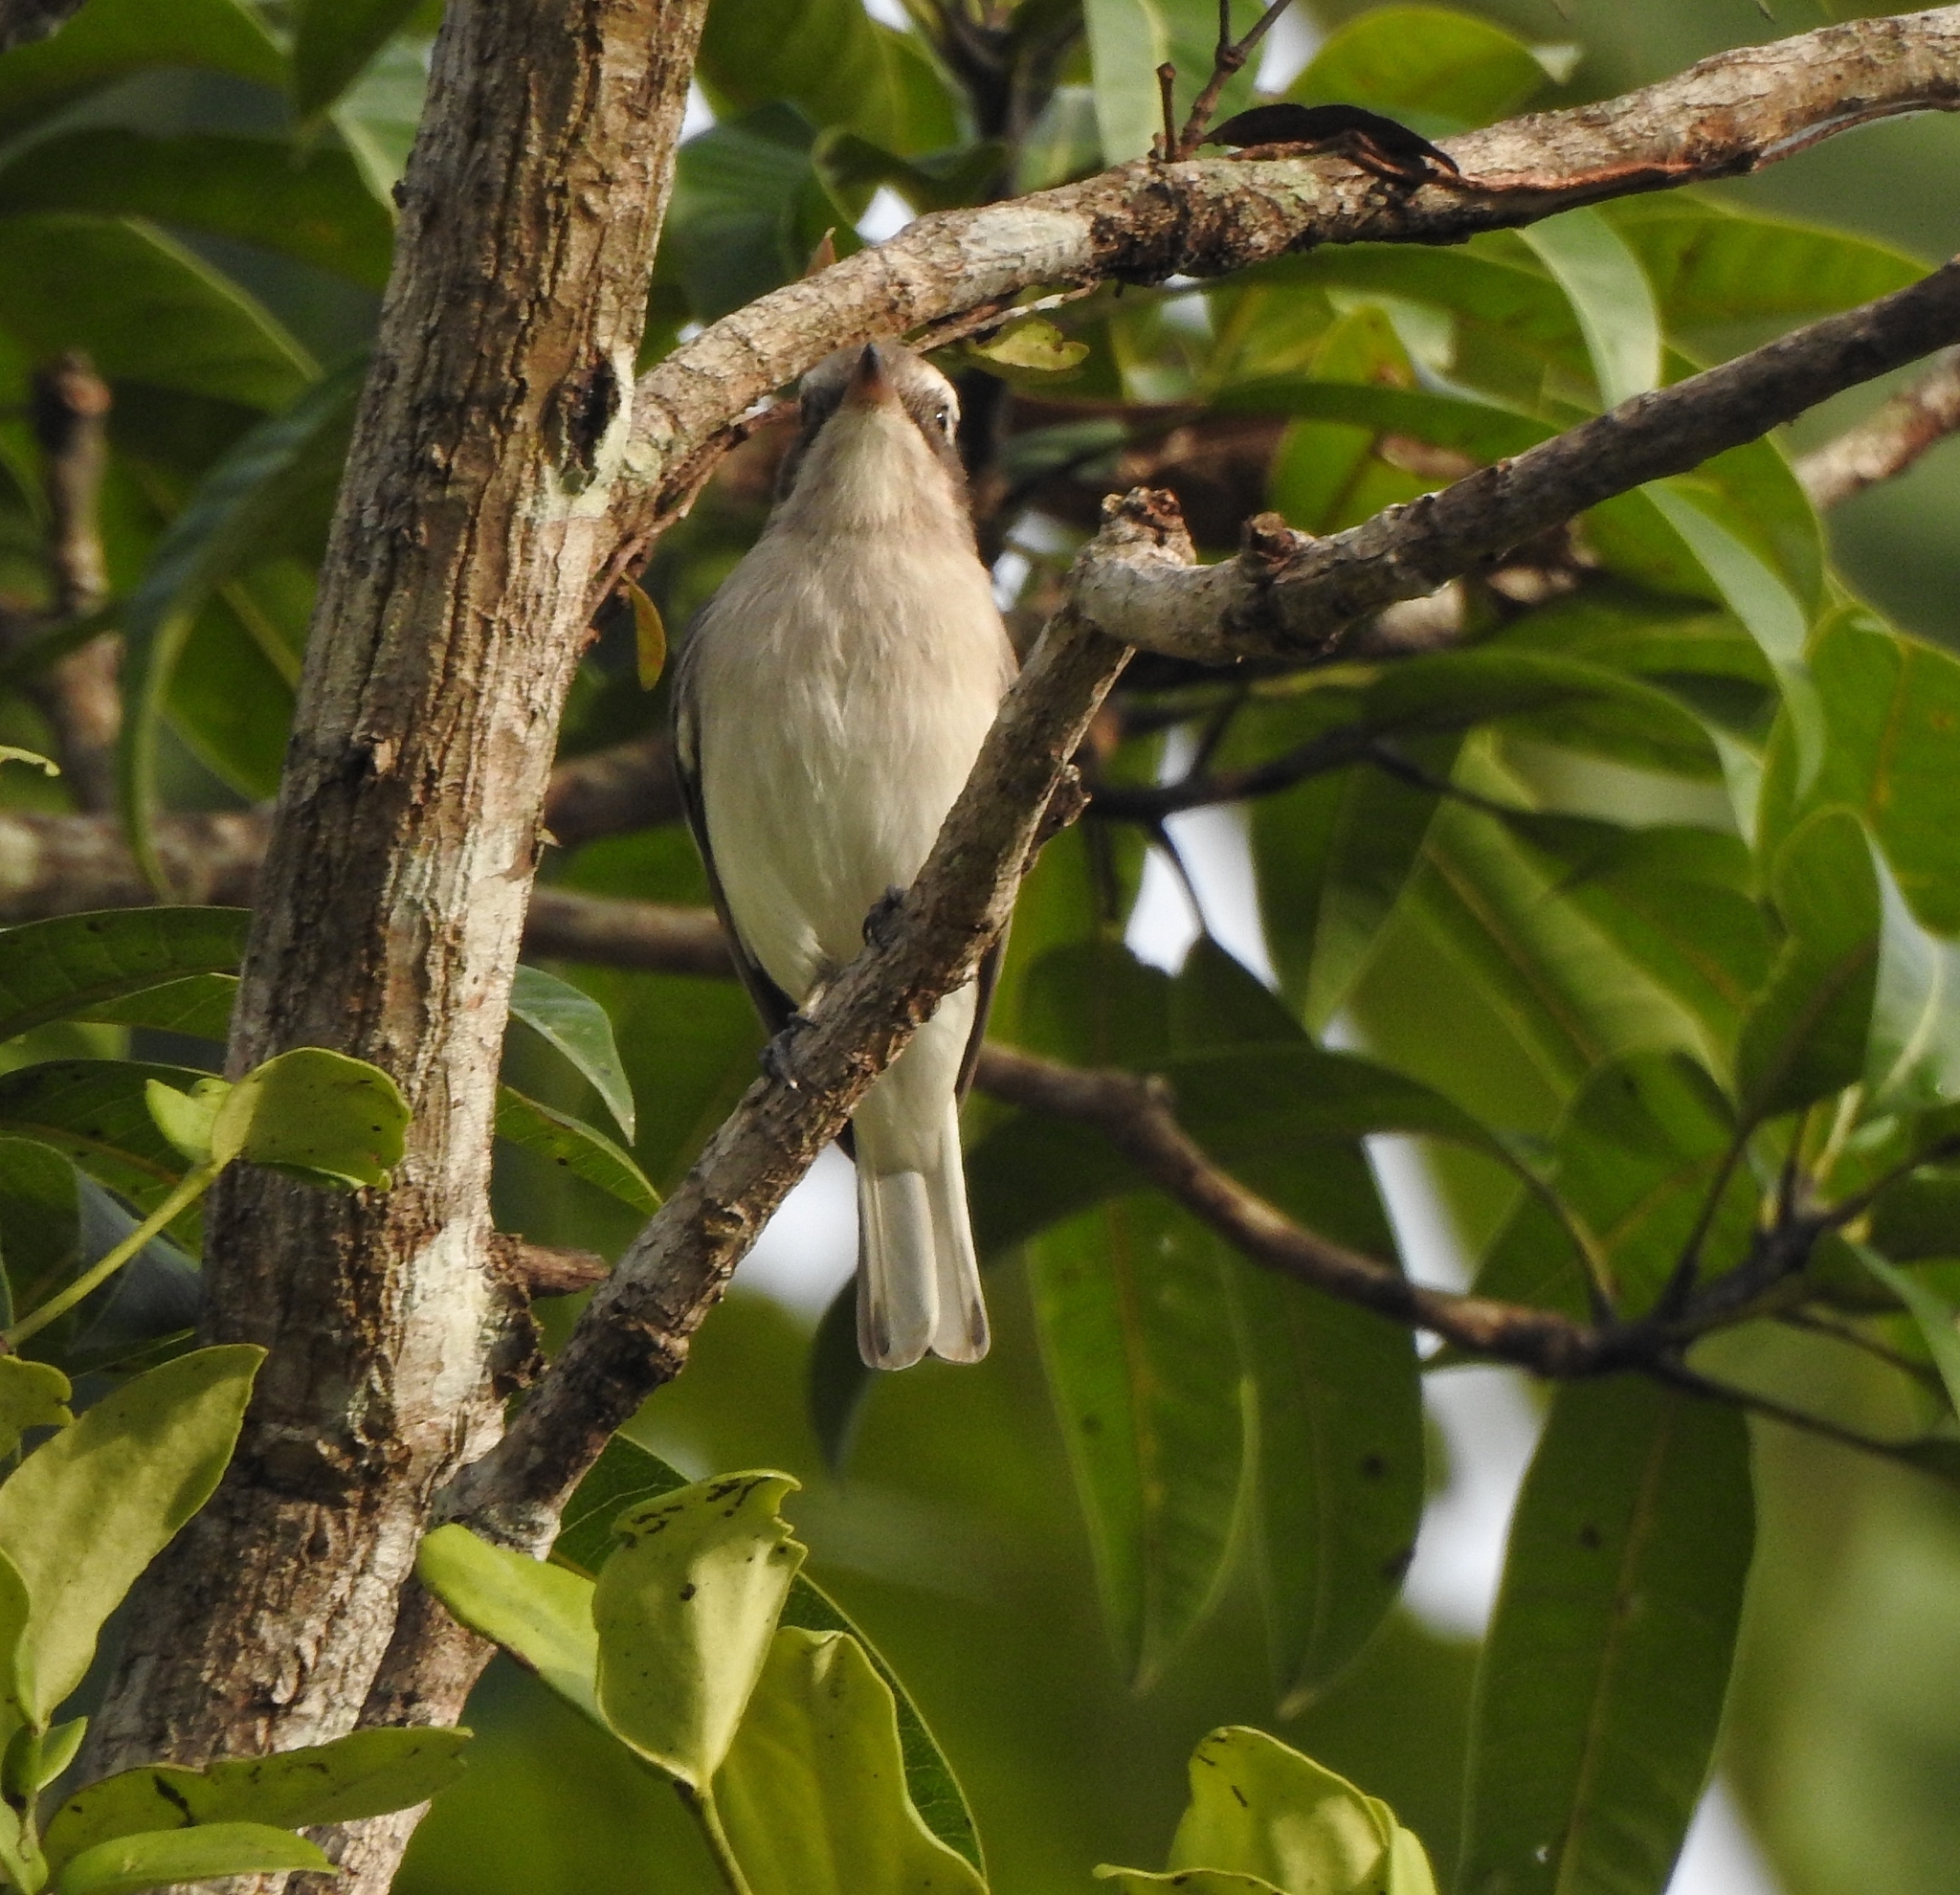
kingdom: Animalia
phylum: Chordata
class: Aves
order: Passeriformes
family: Tephrodornithidae
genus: Tephrodornis
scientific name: Tephrodornis pondicerianus
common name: Common woodshrike
